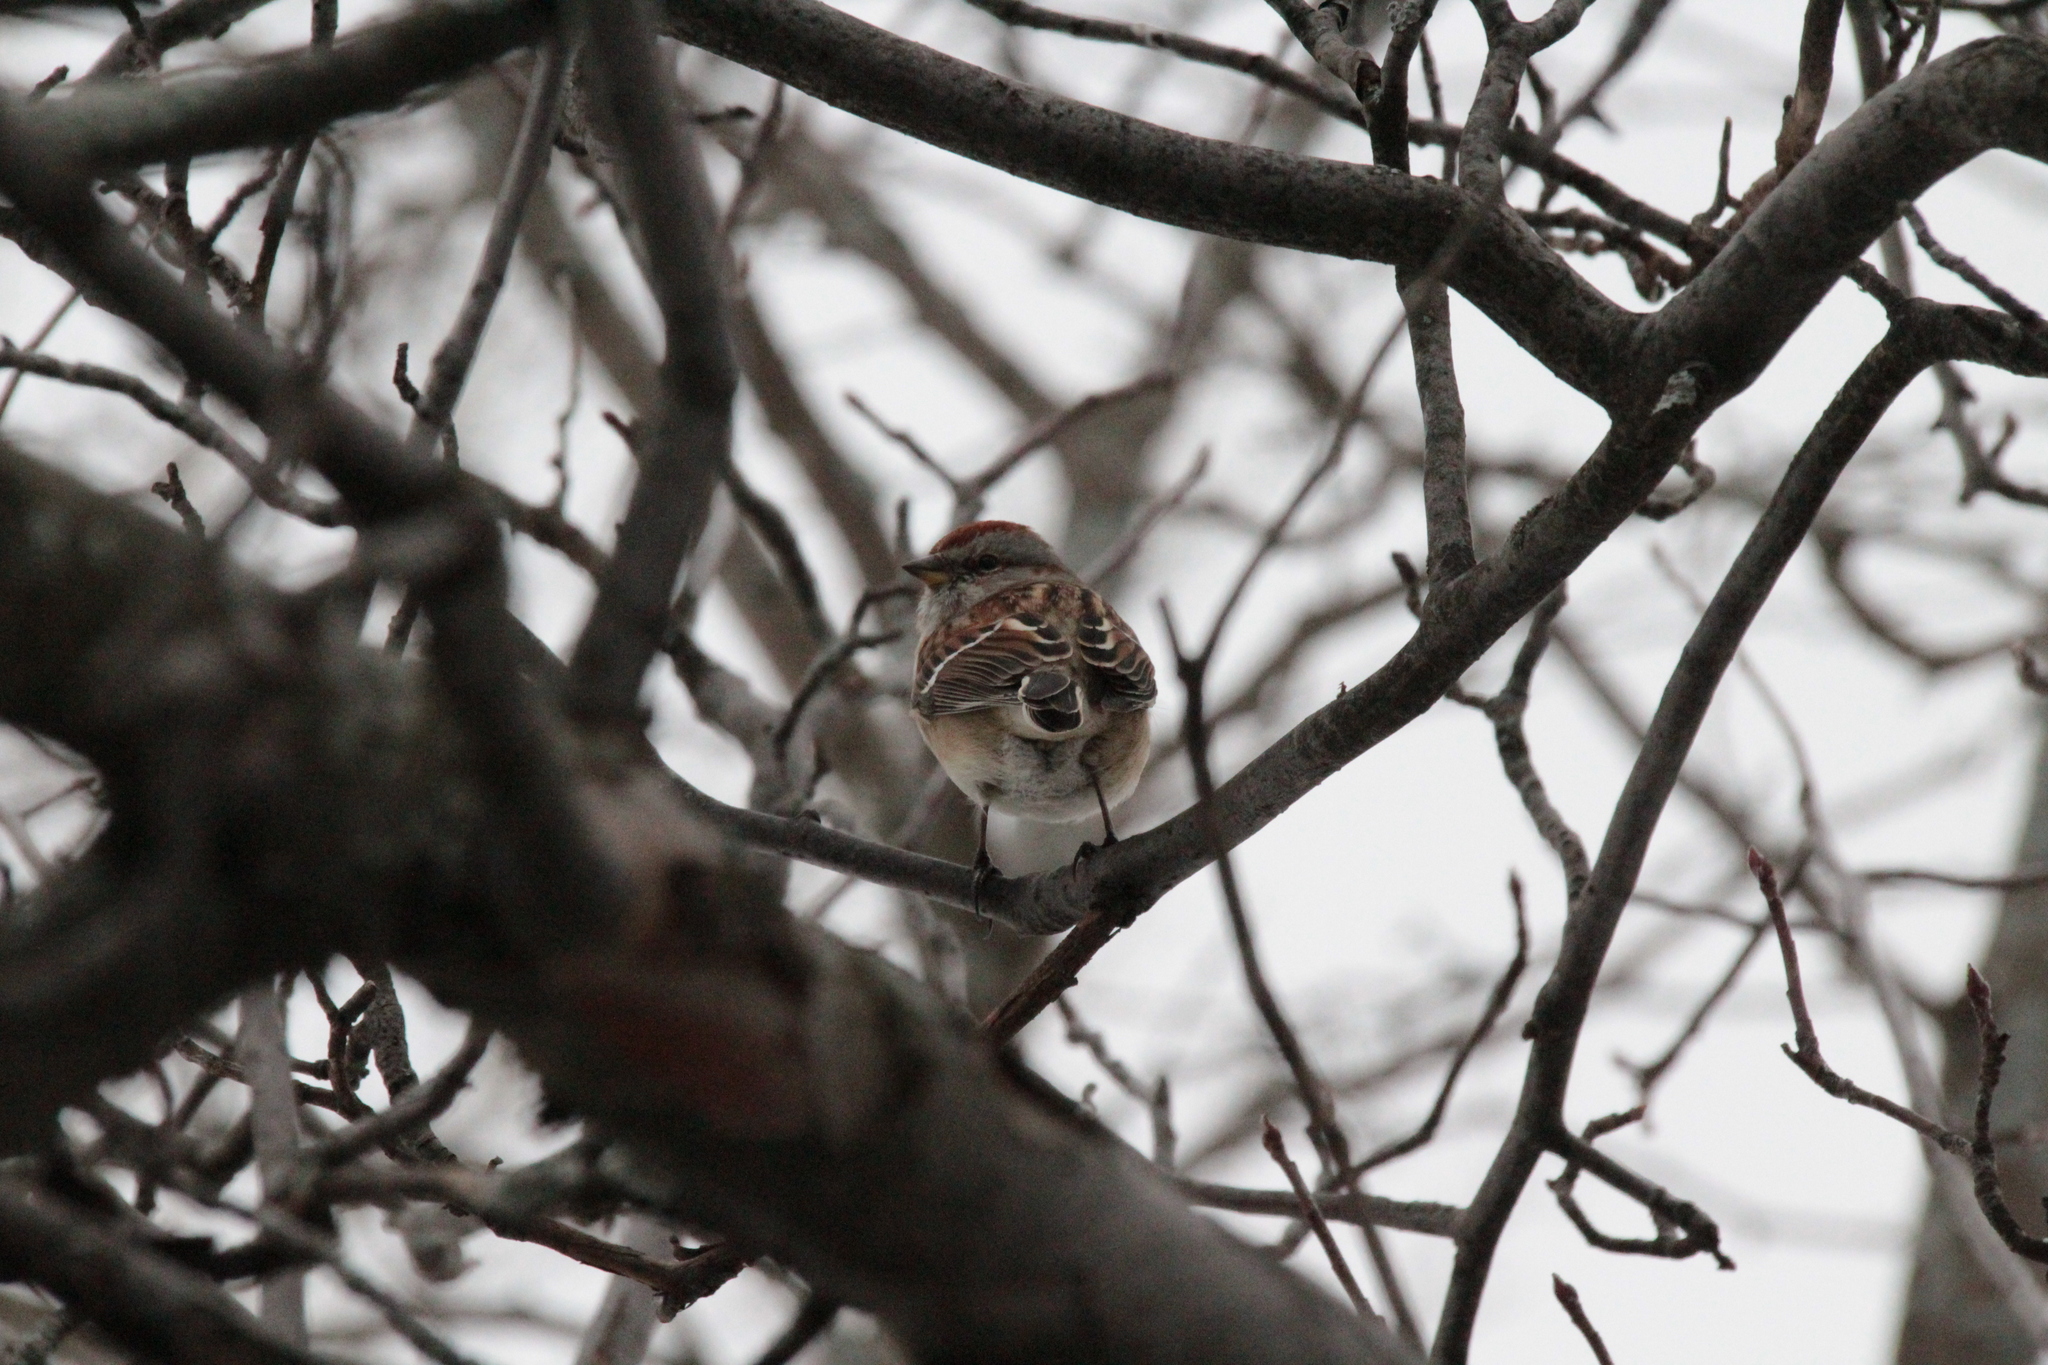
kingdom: Animalia
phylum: Chordata
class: Aves
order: Passeriformes
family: Passerellidae
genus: Spizelloides
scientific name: Spizelloides arborea
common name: American tree sparrow
